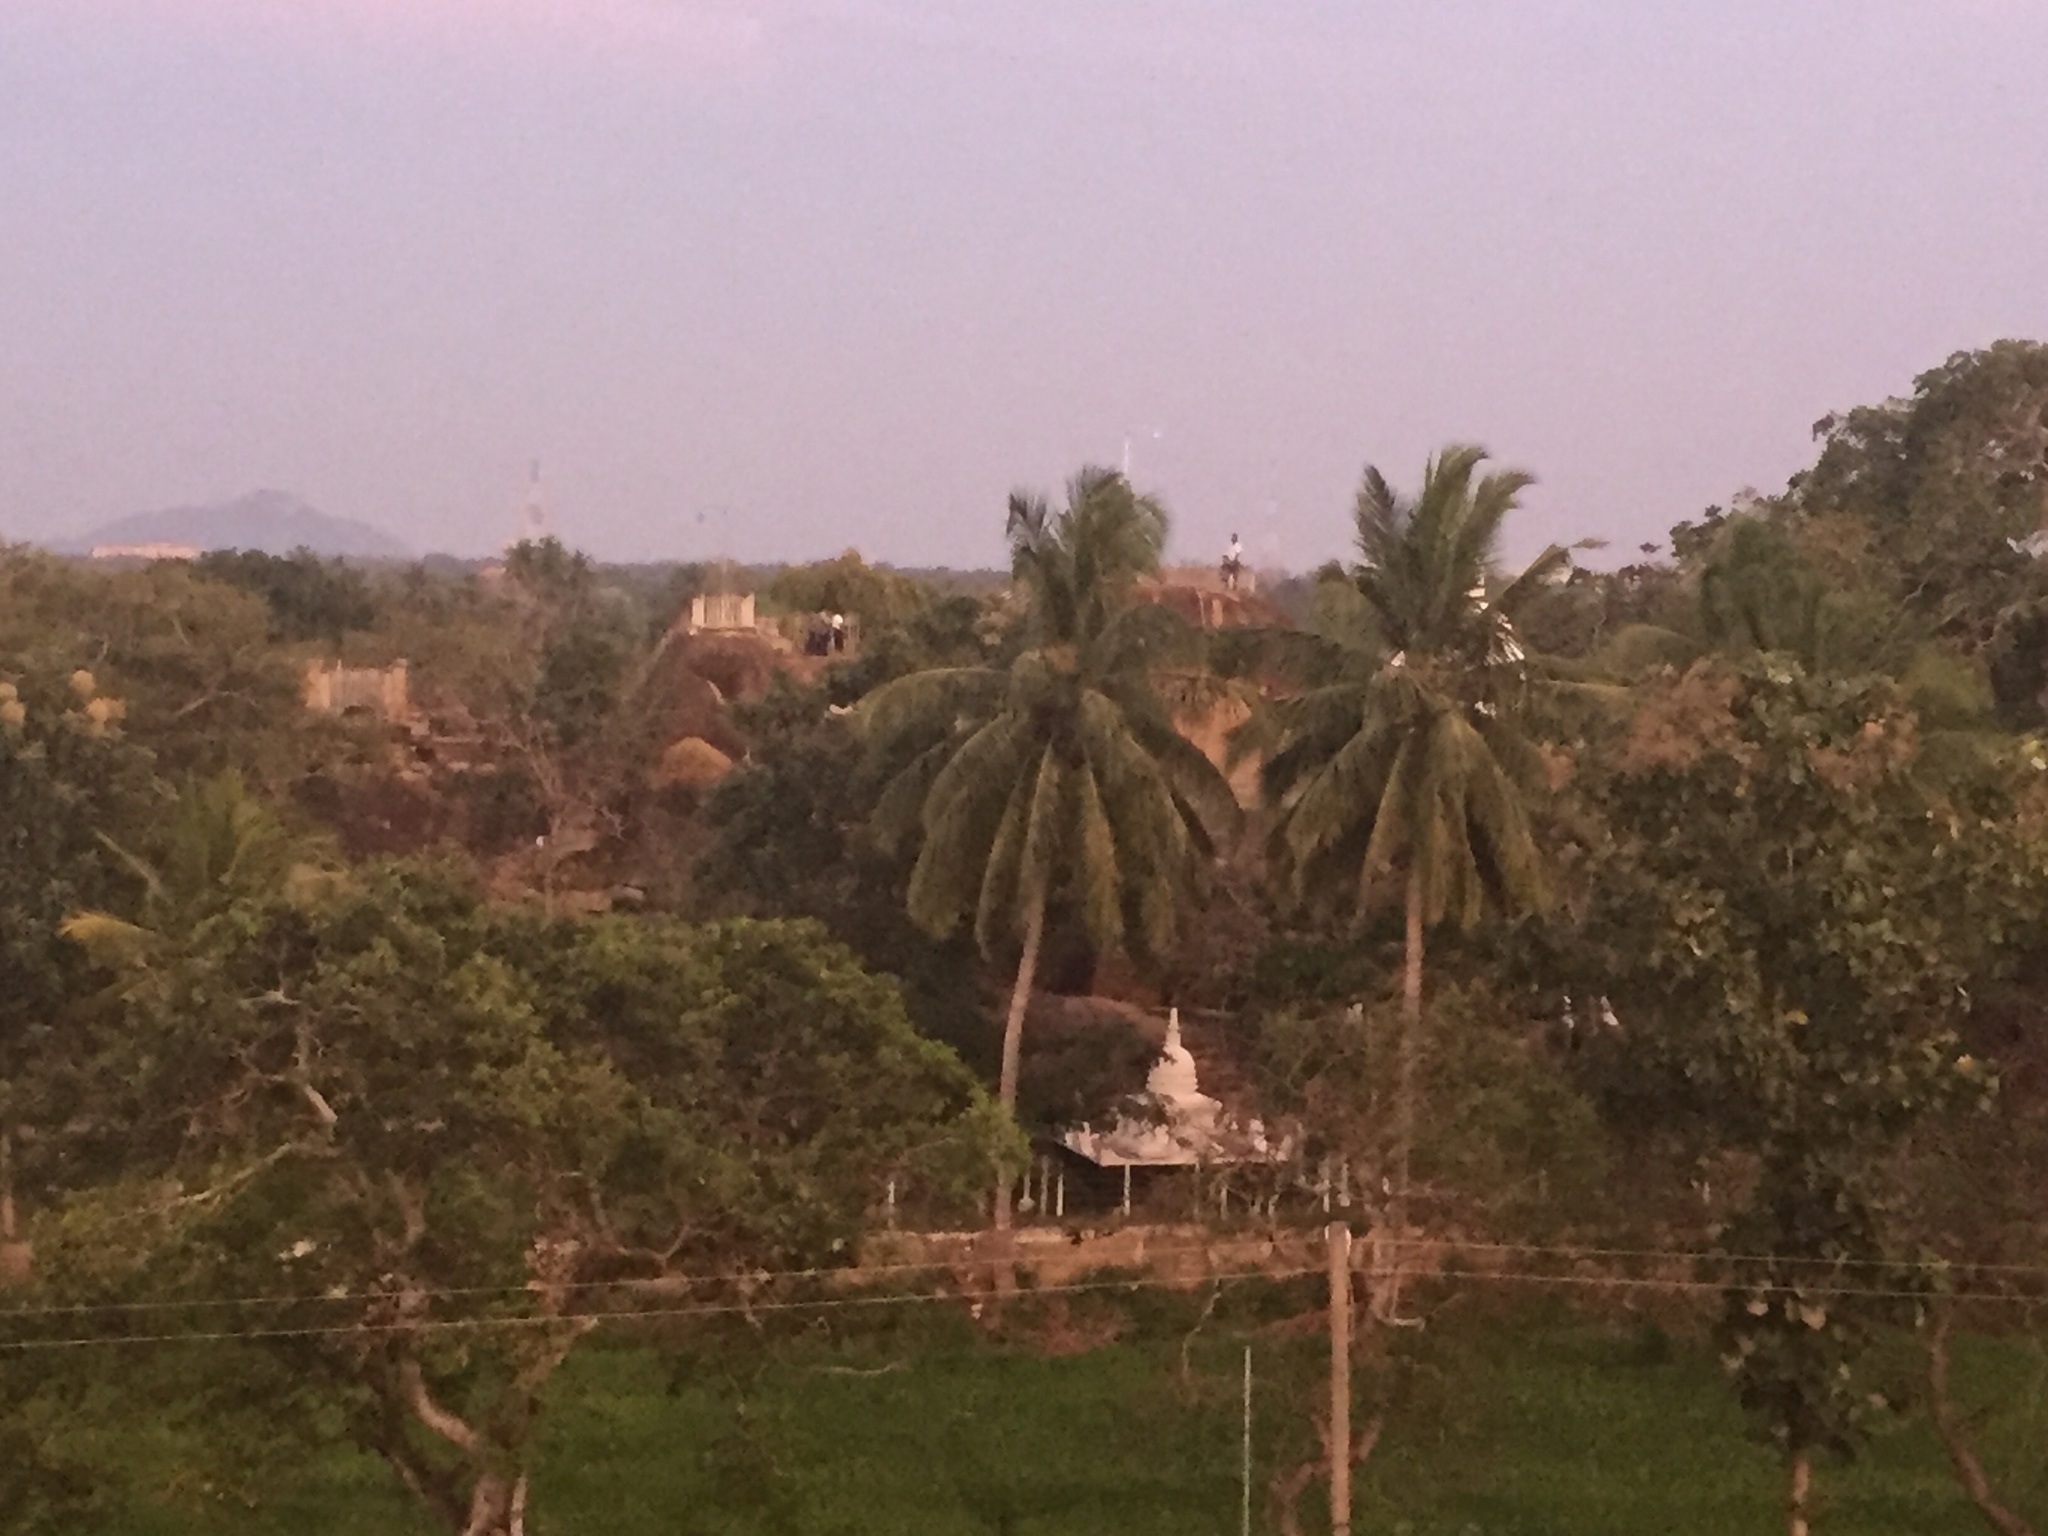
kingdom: Plantae
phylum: Tracheophyta
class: Liliopsida
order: Arecales
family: Arecaceae
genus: Cocos
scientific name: Cocos nucifera
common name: Coconut palm
